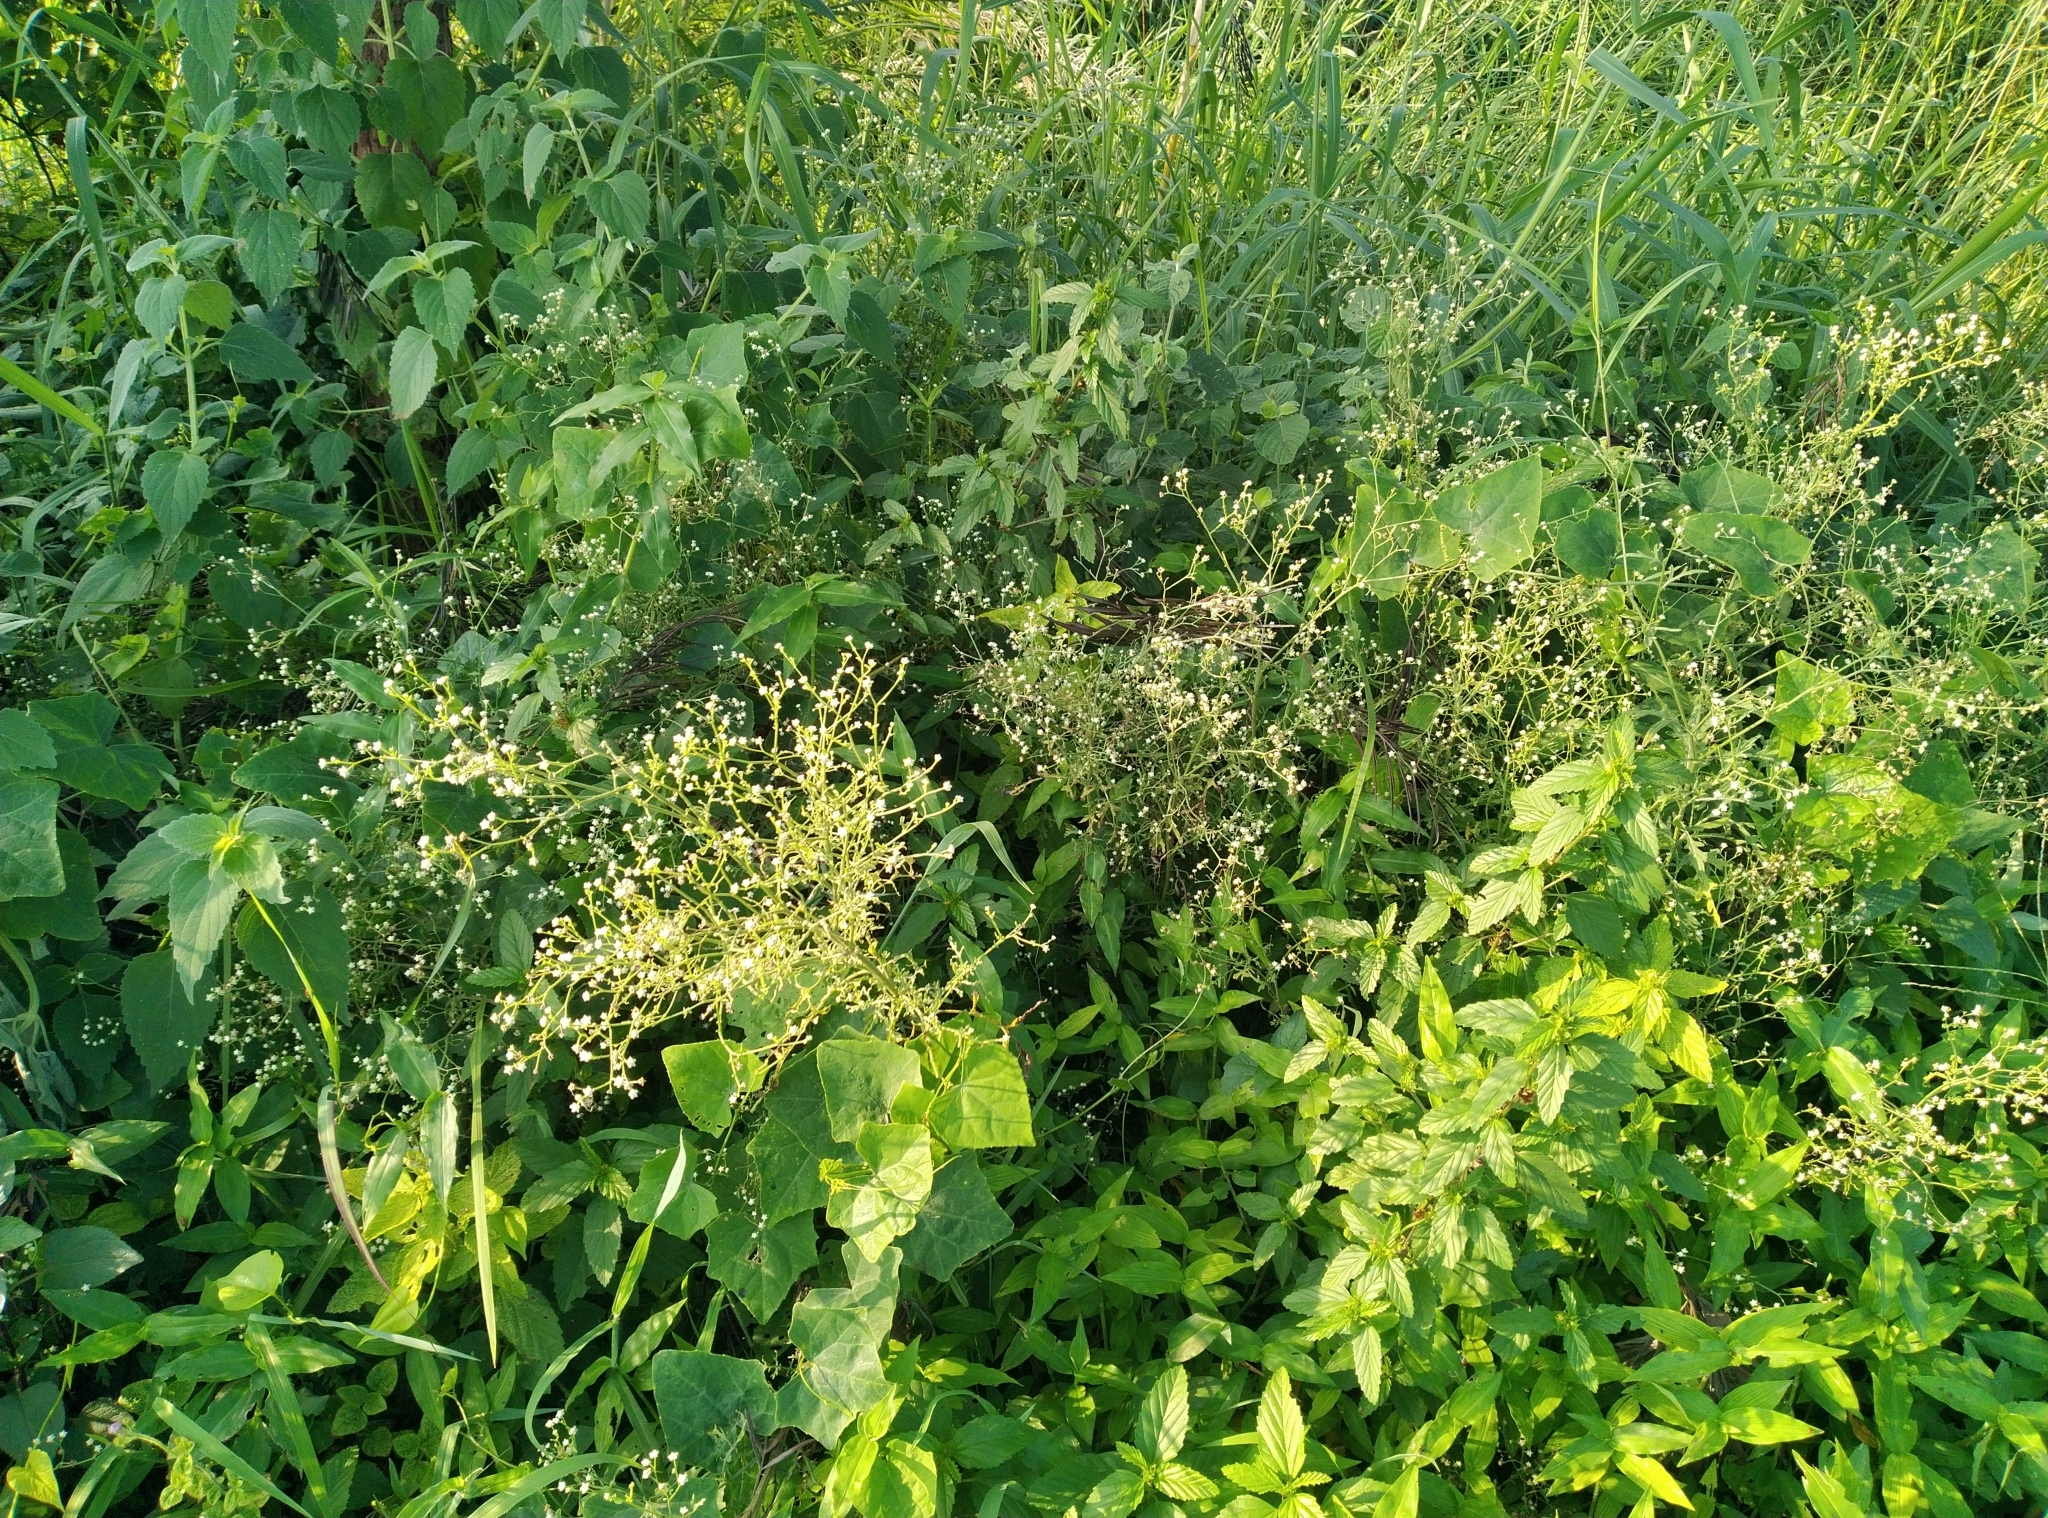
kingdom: Plantae
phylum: Tracheophyta
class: Magnoliopsida
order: Asterales
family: Asteraceae
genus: Parthenium
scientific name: Parthenium hysterophorus
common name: Santa maria feverfew
